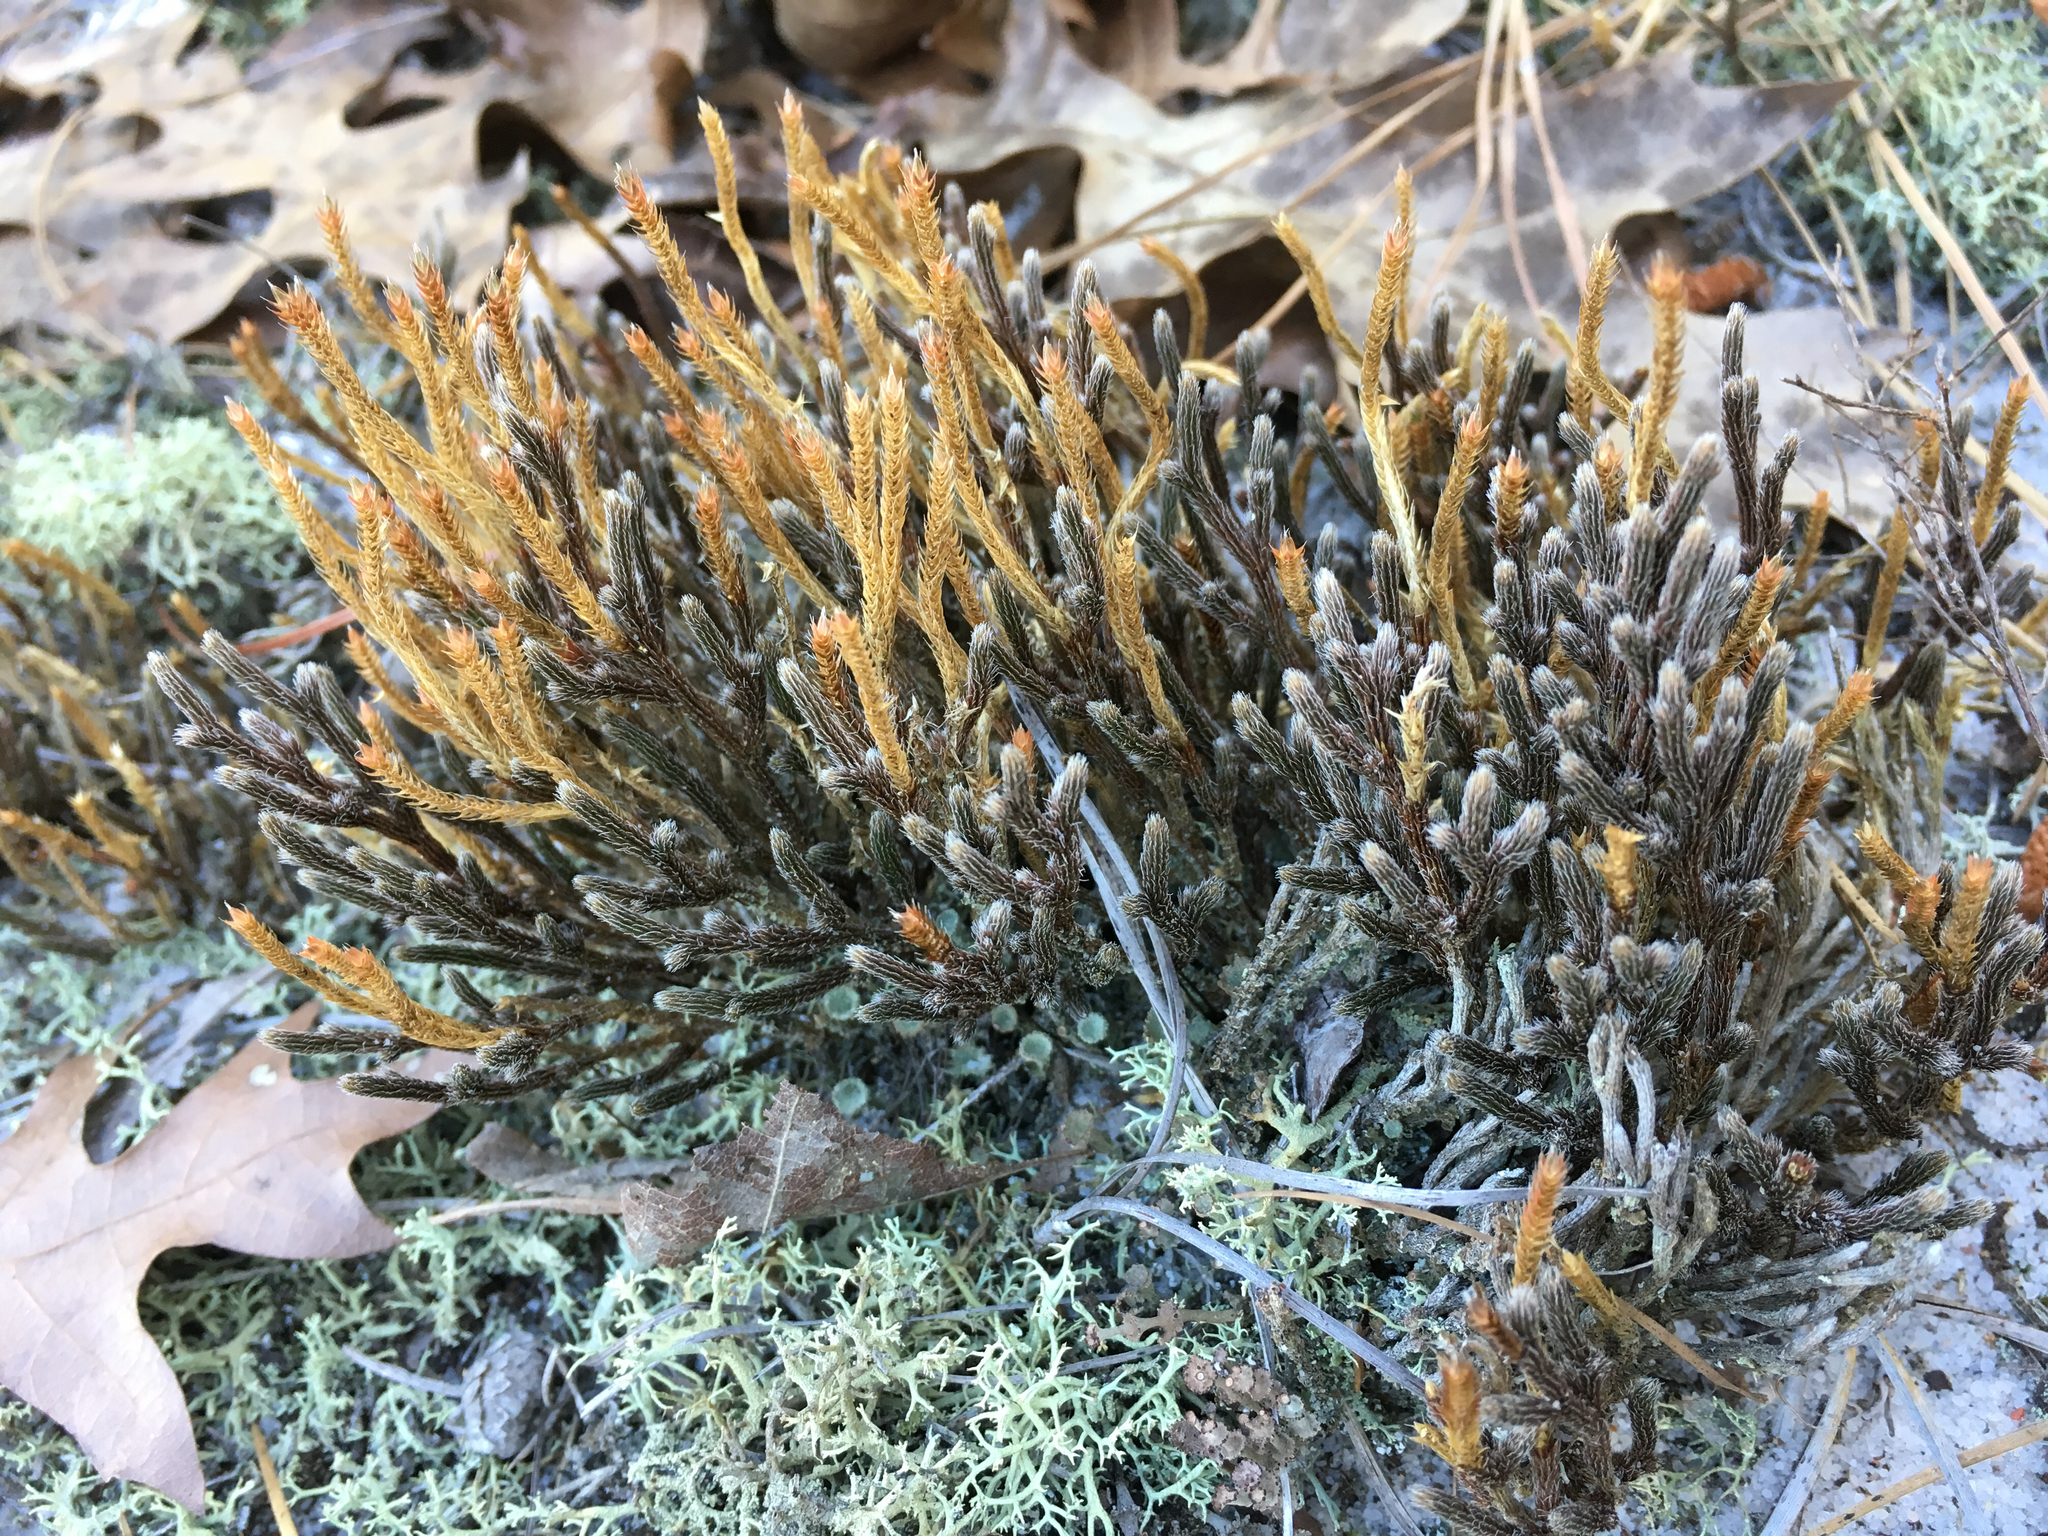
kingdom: Plantae
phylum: Tracheophyta
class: Lycopodiopsida
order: Selaginellales
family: Selaginellaceae
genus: Selaginella
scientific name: Selaginella acanthonota
